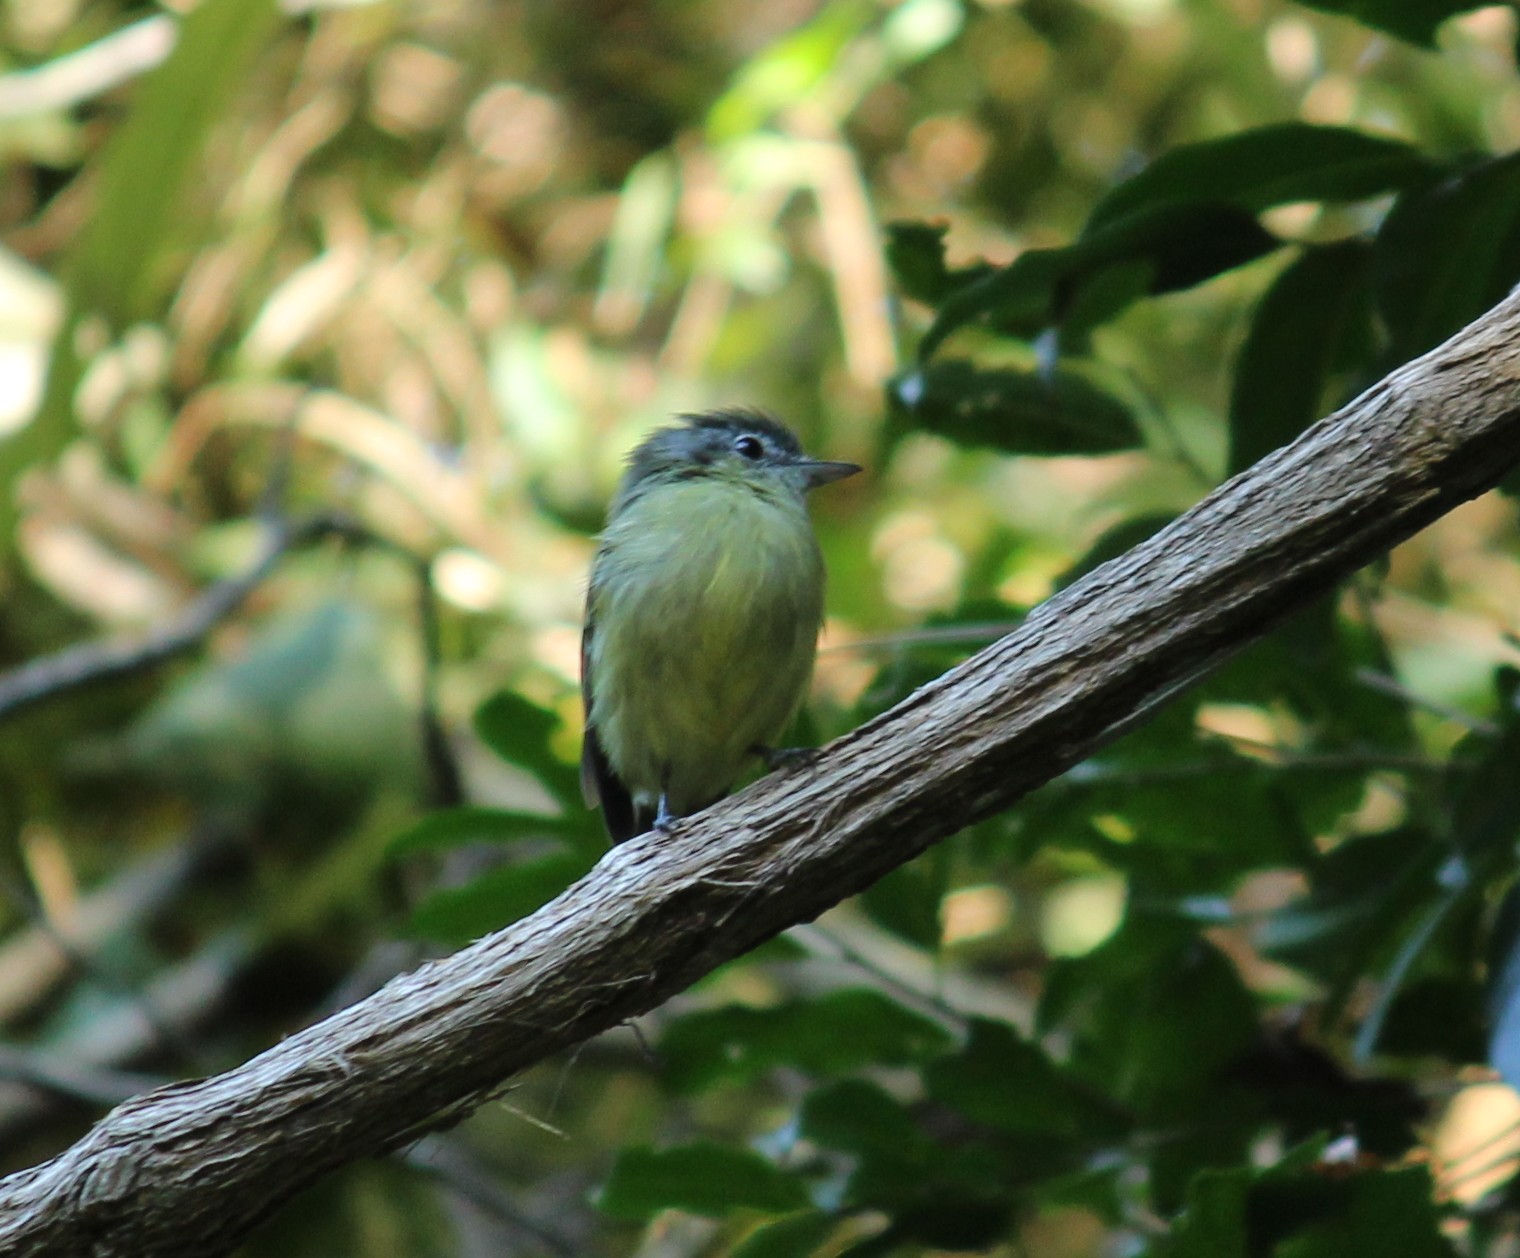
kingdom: Animalia
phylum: Chordata
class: Aves
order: Passeriformes
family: Tyrannidae
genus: Tolmomyias
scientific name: Tolmomyias sulphurescens
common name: Yellow-olive flycatcher
